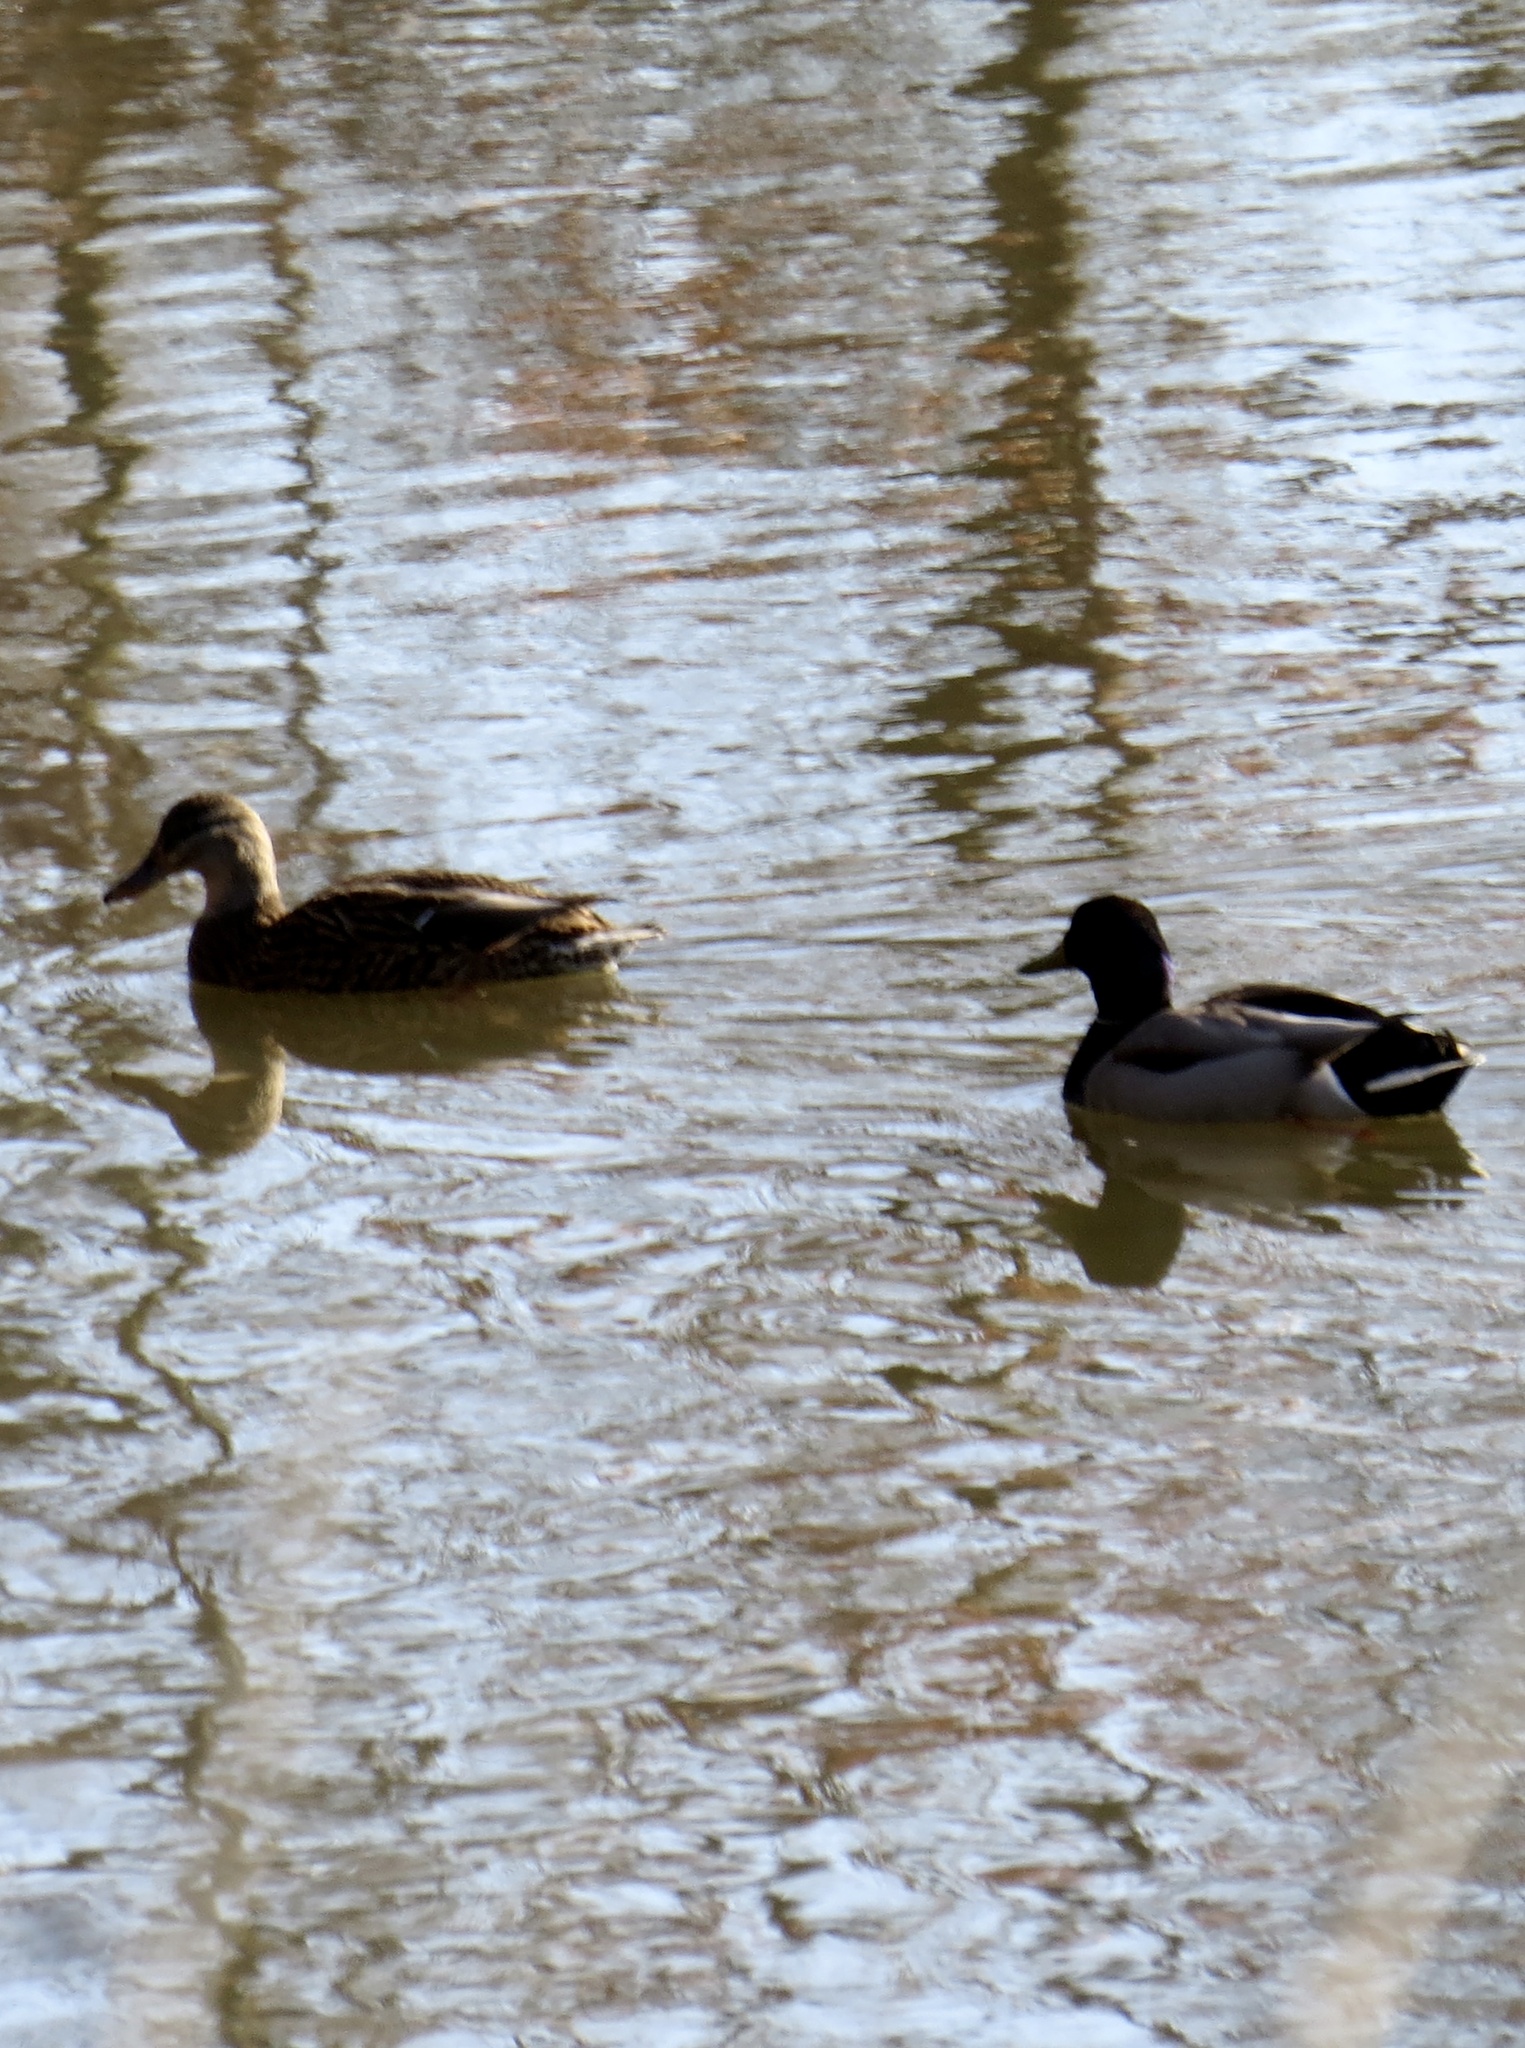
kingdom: Animalia
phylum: Chordata
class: Aves
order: Anseriformes
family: Anatidae
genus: Anas
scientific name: Anas platyrhynchos
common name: Mallard
